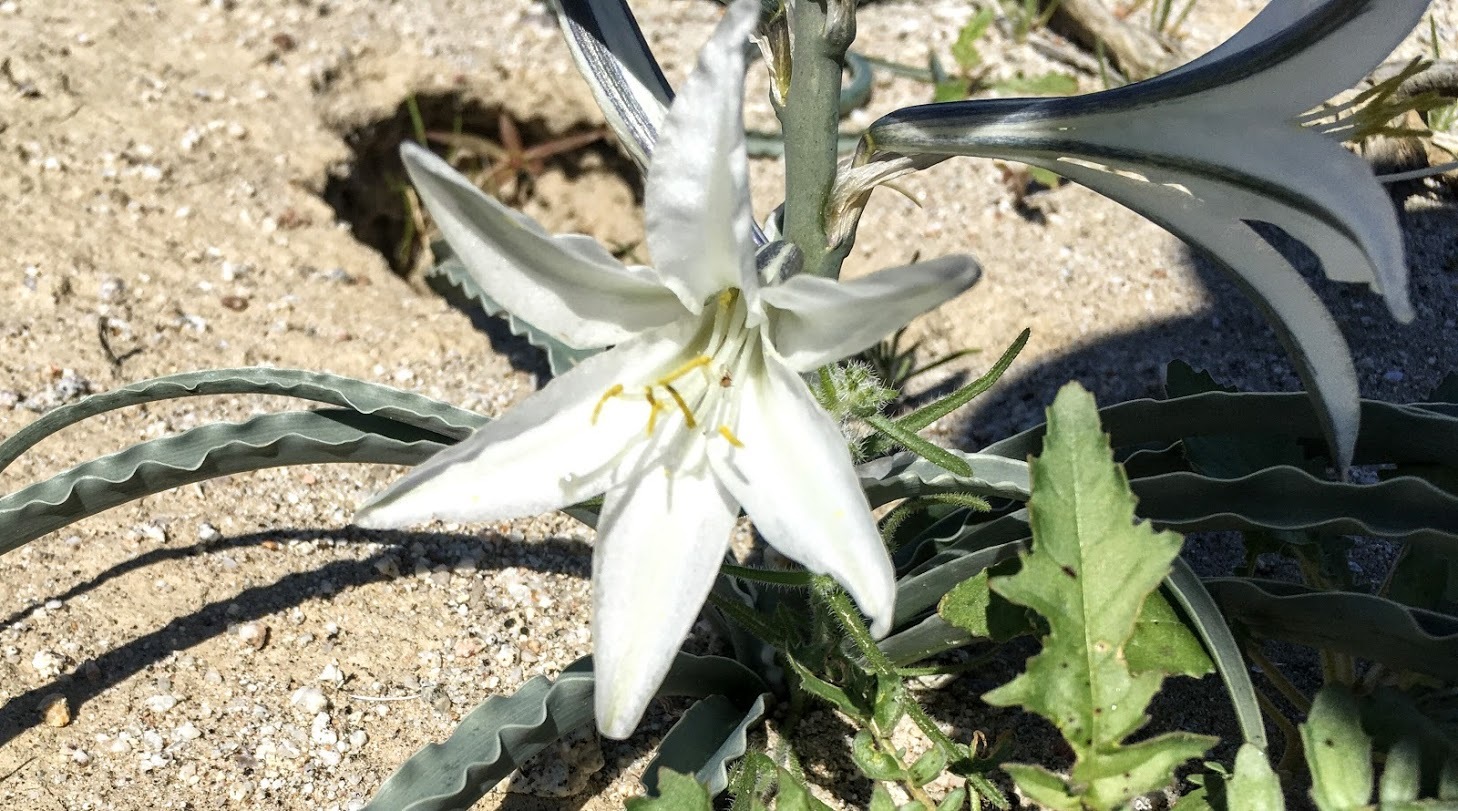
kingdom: Plantae
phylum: Tracheophyta
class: Liliopsida
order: Asparagales
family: Asparagaceae
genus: Hesperocallis
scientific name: Hesperocallis undulata
